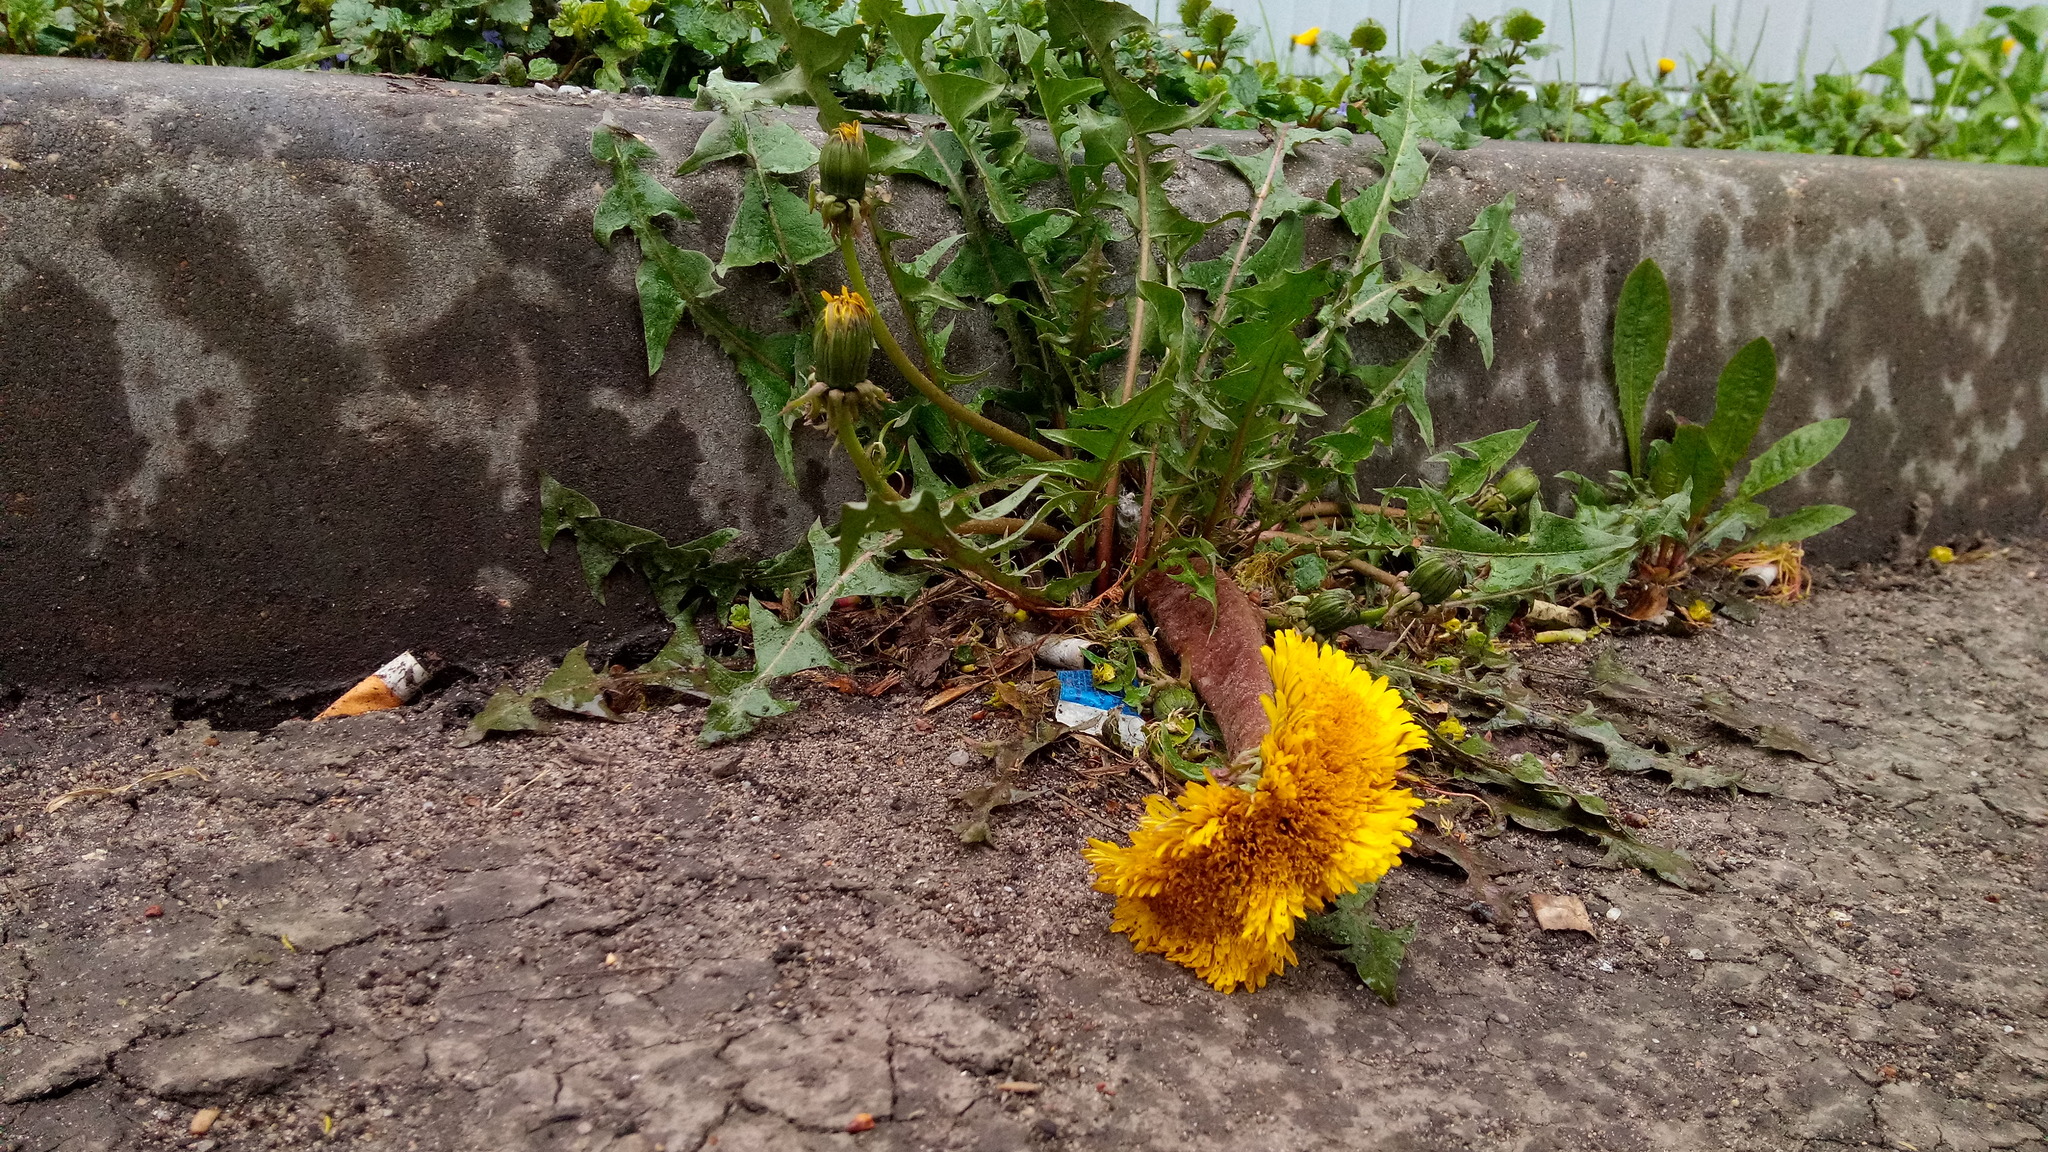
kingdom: Plantae
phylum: Tracheophyta
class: Magnoliopsida
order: Asterales
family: Asteraceae
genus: Taraxacum
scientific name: Taraxacum officinale
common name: Common dandelion
